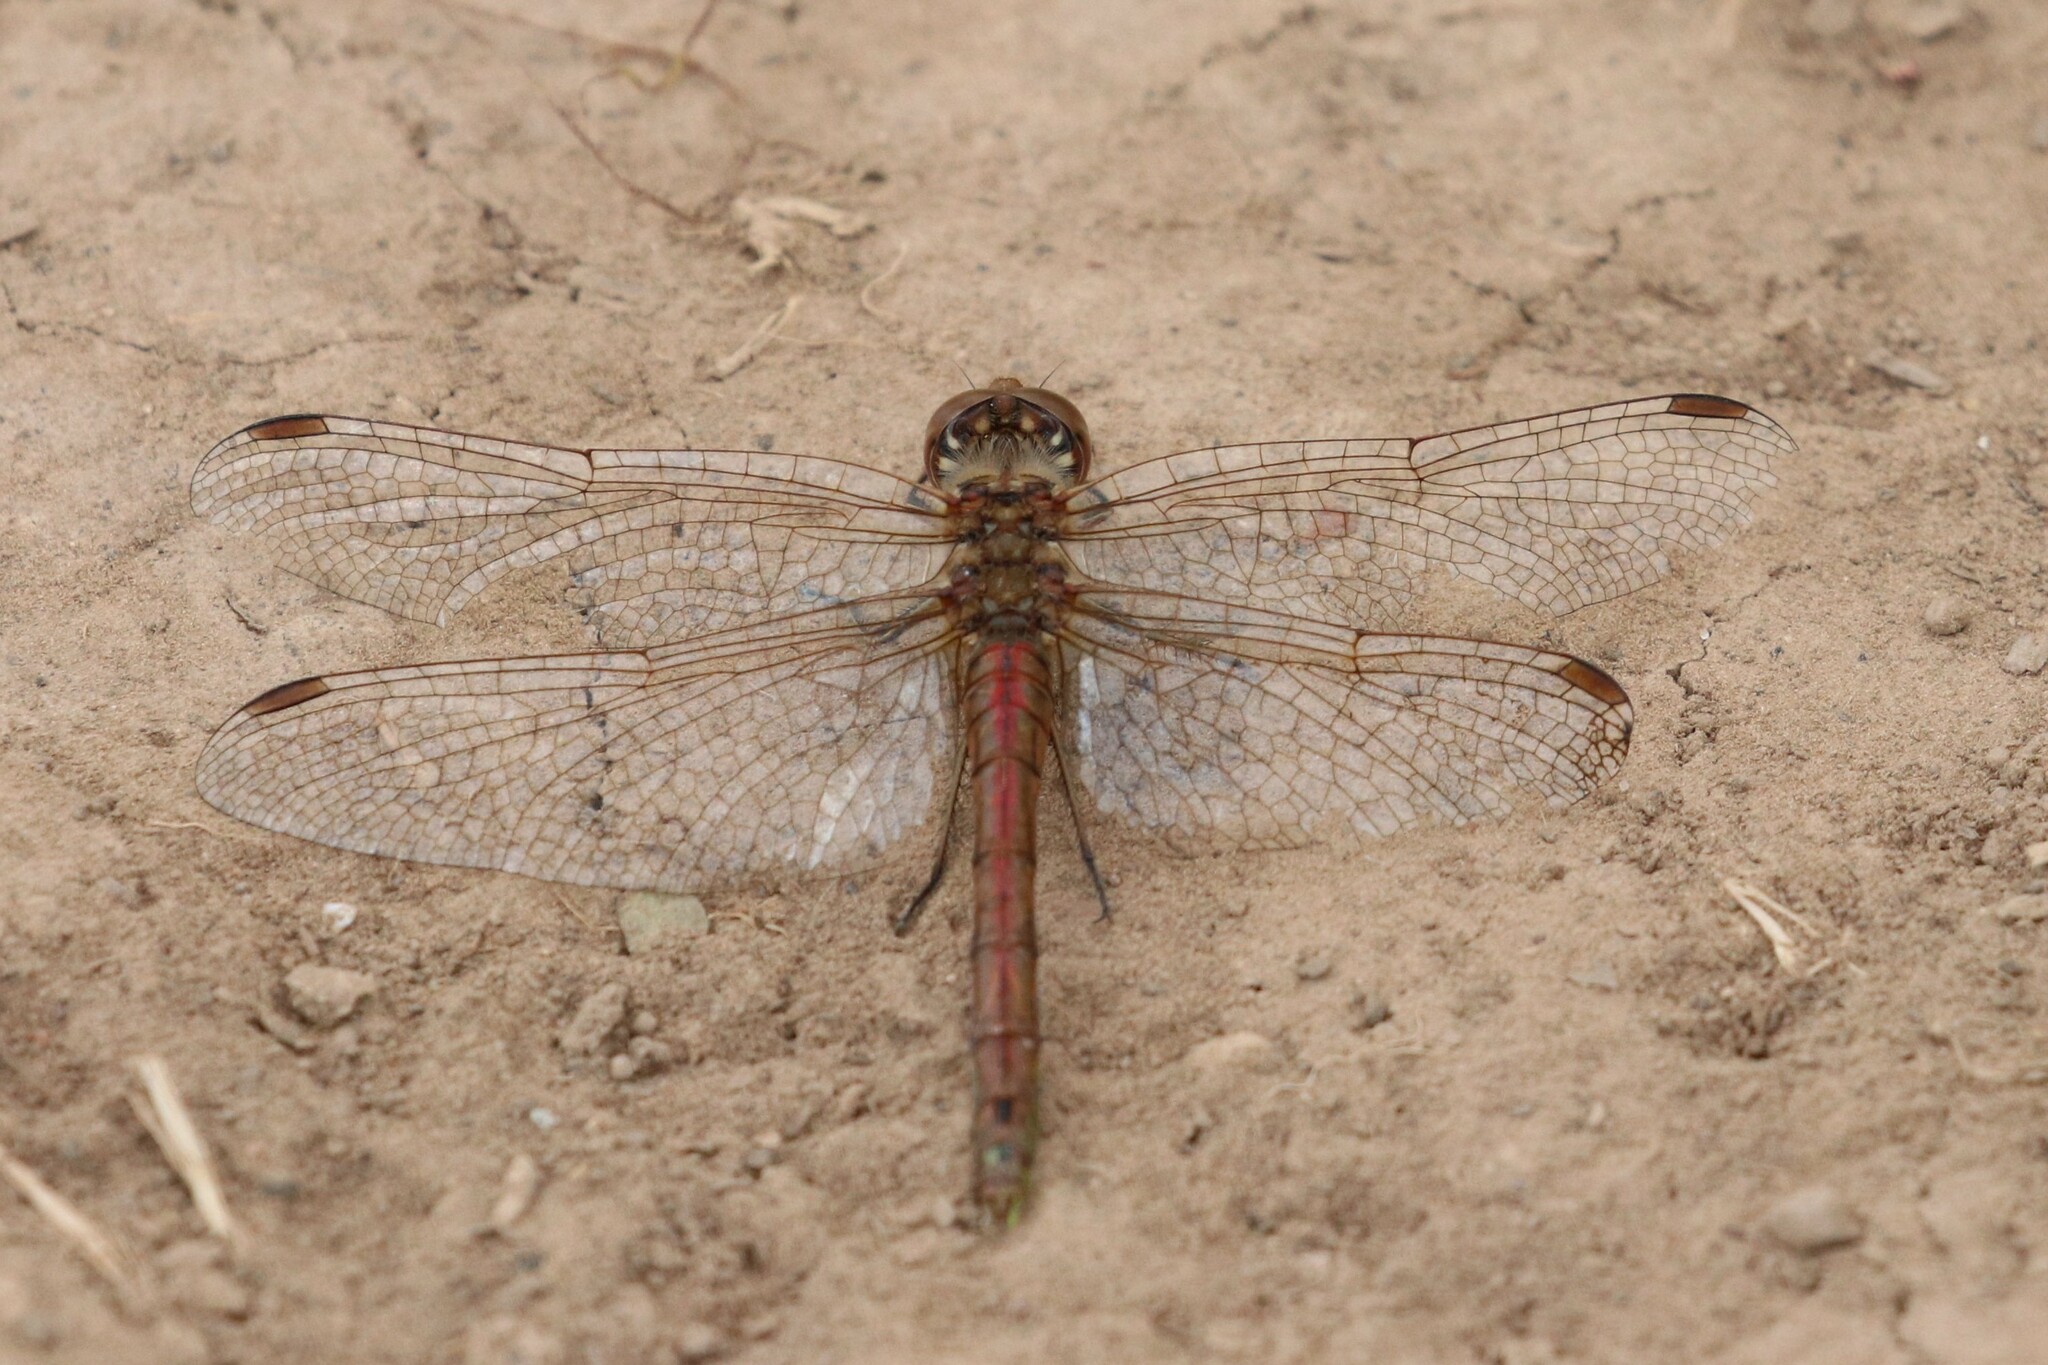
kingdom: Animalia
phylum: Arthropoda
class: Insecta
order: Odonata
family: Libellulidae
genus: Sympetrum
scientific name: Sympetrum vulgatum
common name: Vagrant darter
